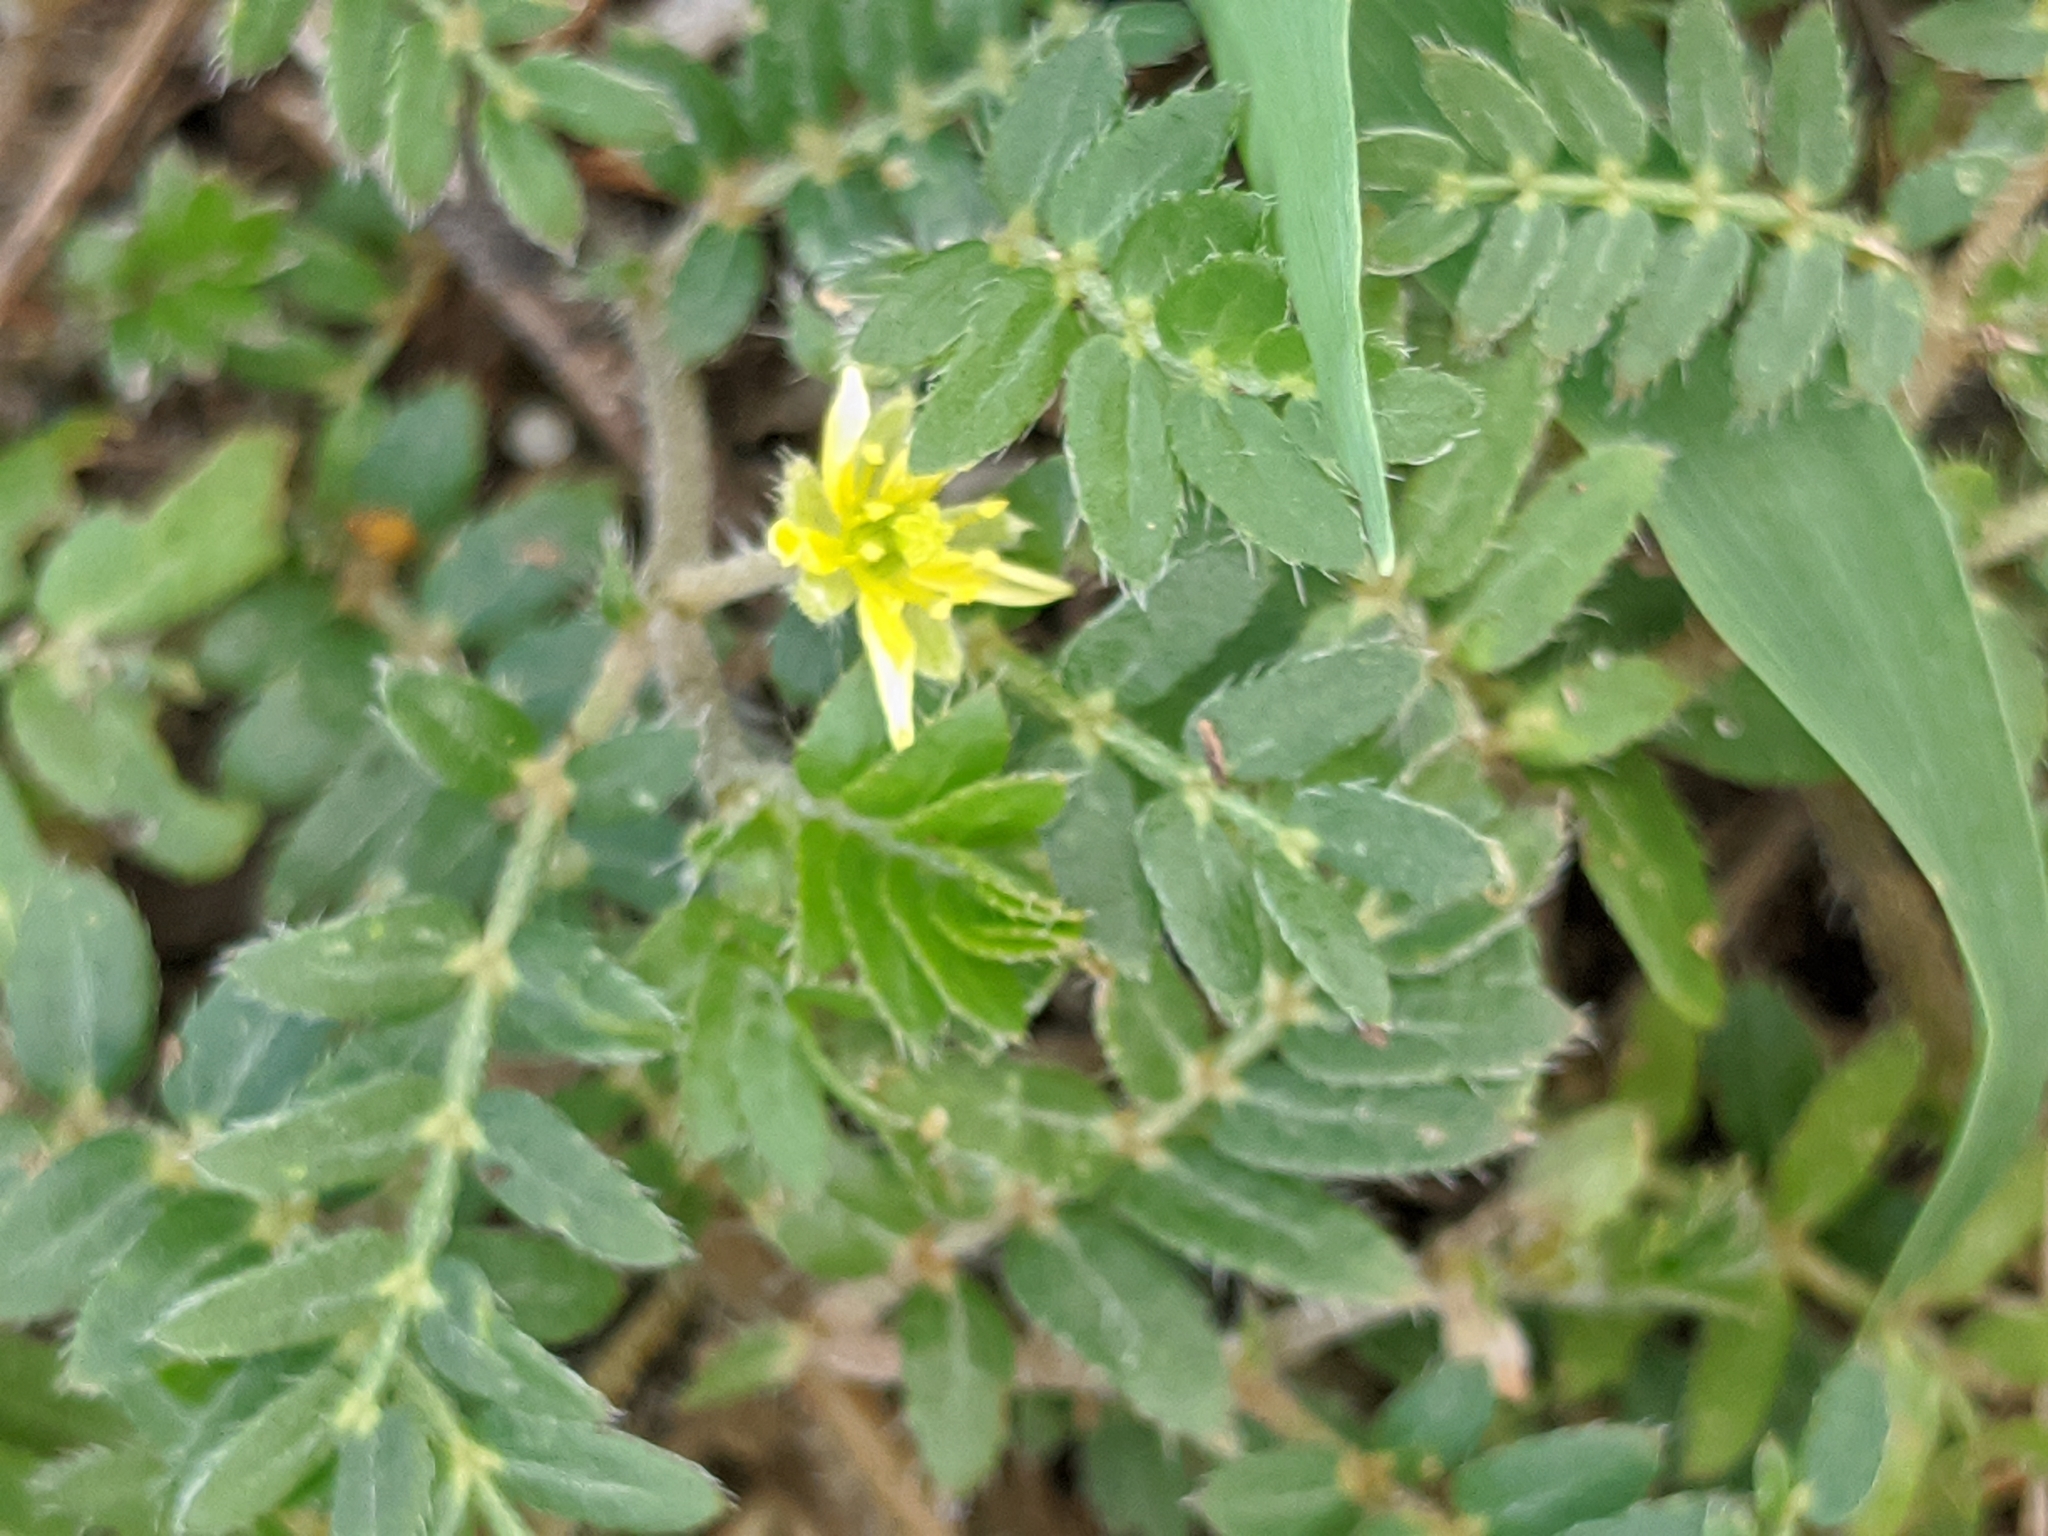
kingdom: Plantae
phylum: Tracheophyta
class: Magnoliopsida
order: Zygophyllales
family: Zygophyllaceae
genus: Tribulus
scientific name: Tribulus terrestris
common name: Puncturevine
